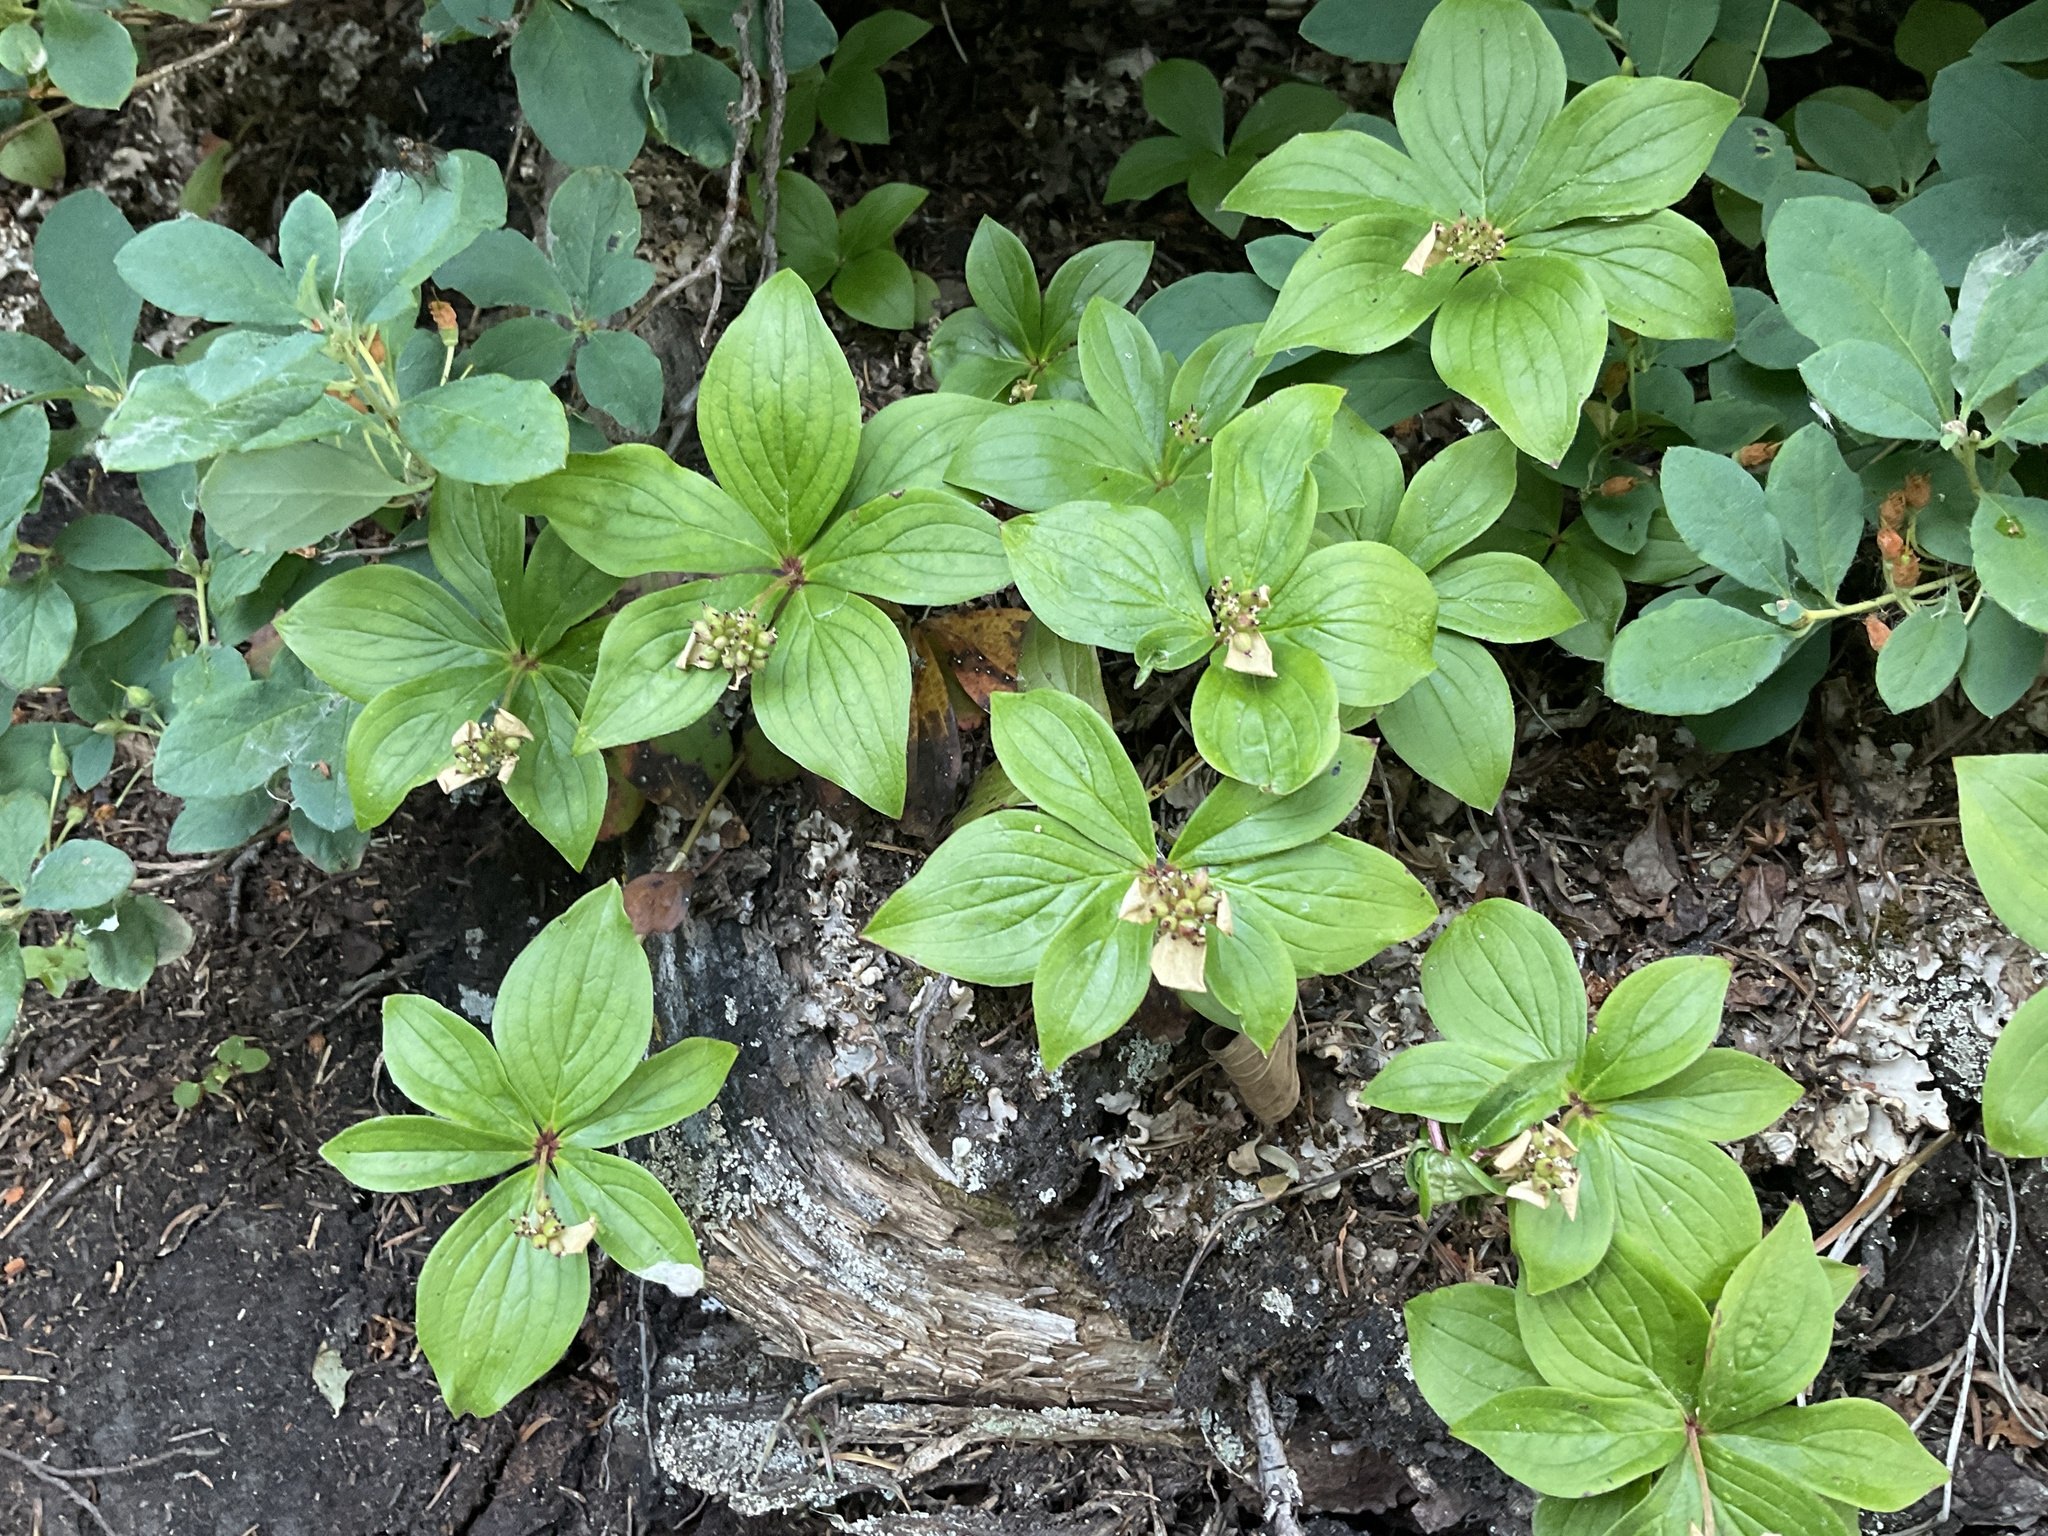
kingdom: Plantae
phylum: Tracheophyta
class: Magnoliopsida
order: Cornales
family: Cornaceae
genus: Cornus
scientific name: Cornus canadensis
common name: Creeping dogwood
